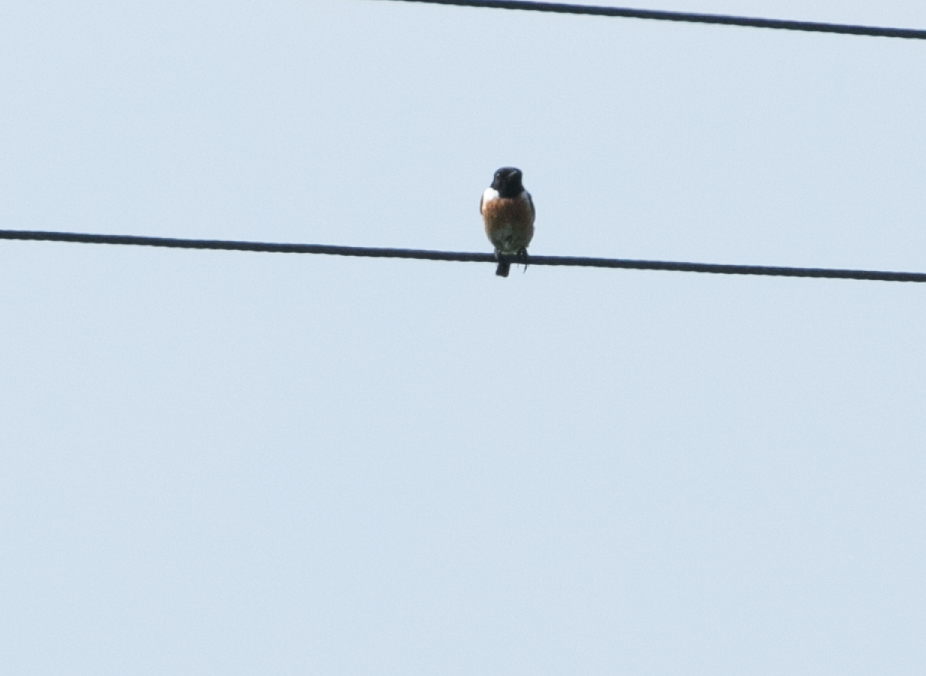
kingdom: Animalia
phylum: Chordata
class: Aves
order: Passeriformes
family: Muscicapidae
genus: Saxicola
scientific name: Saxicola rubicola
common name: European stonechat
